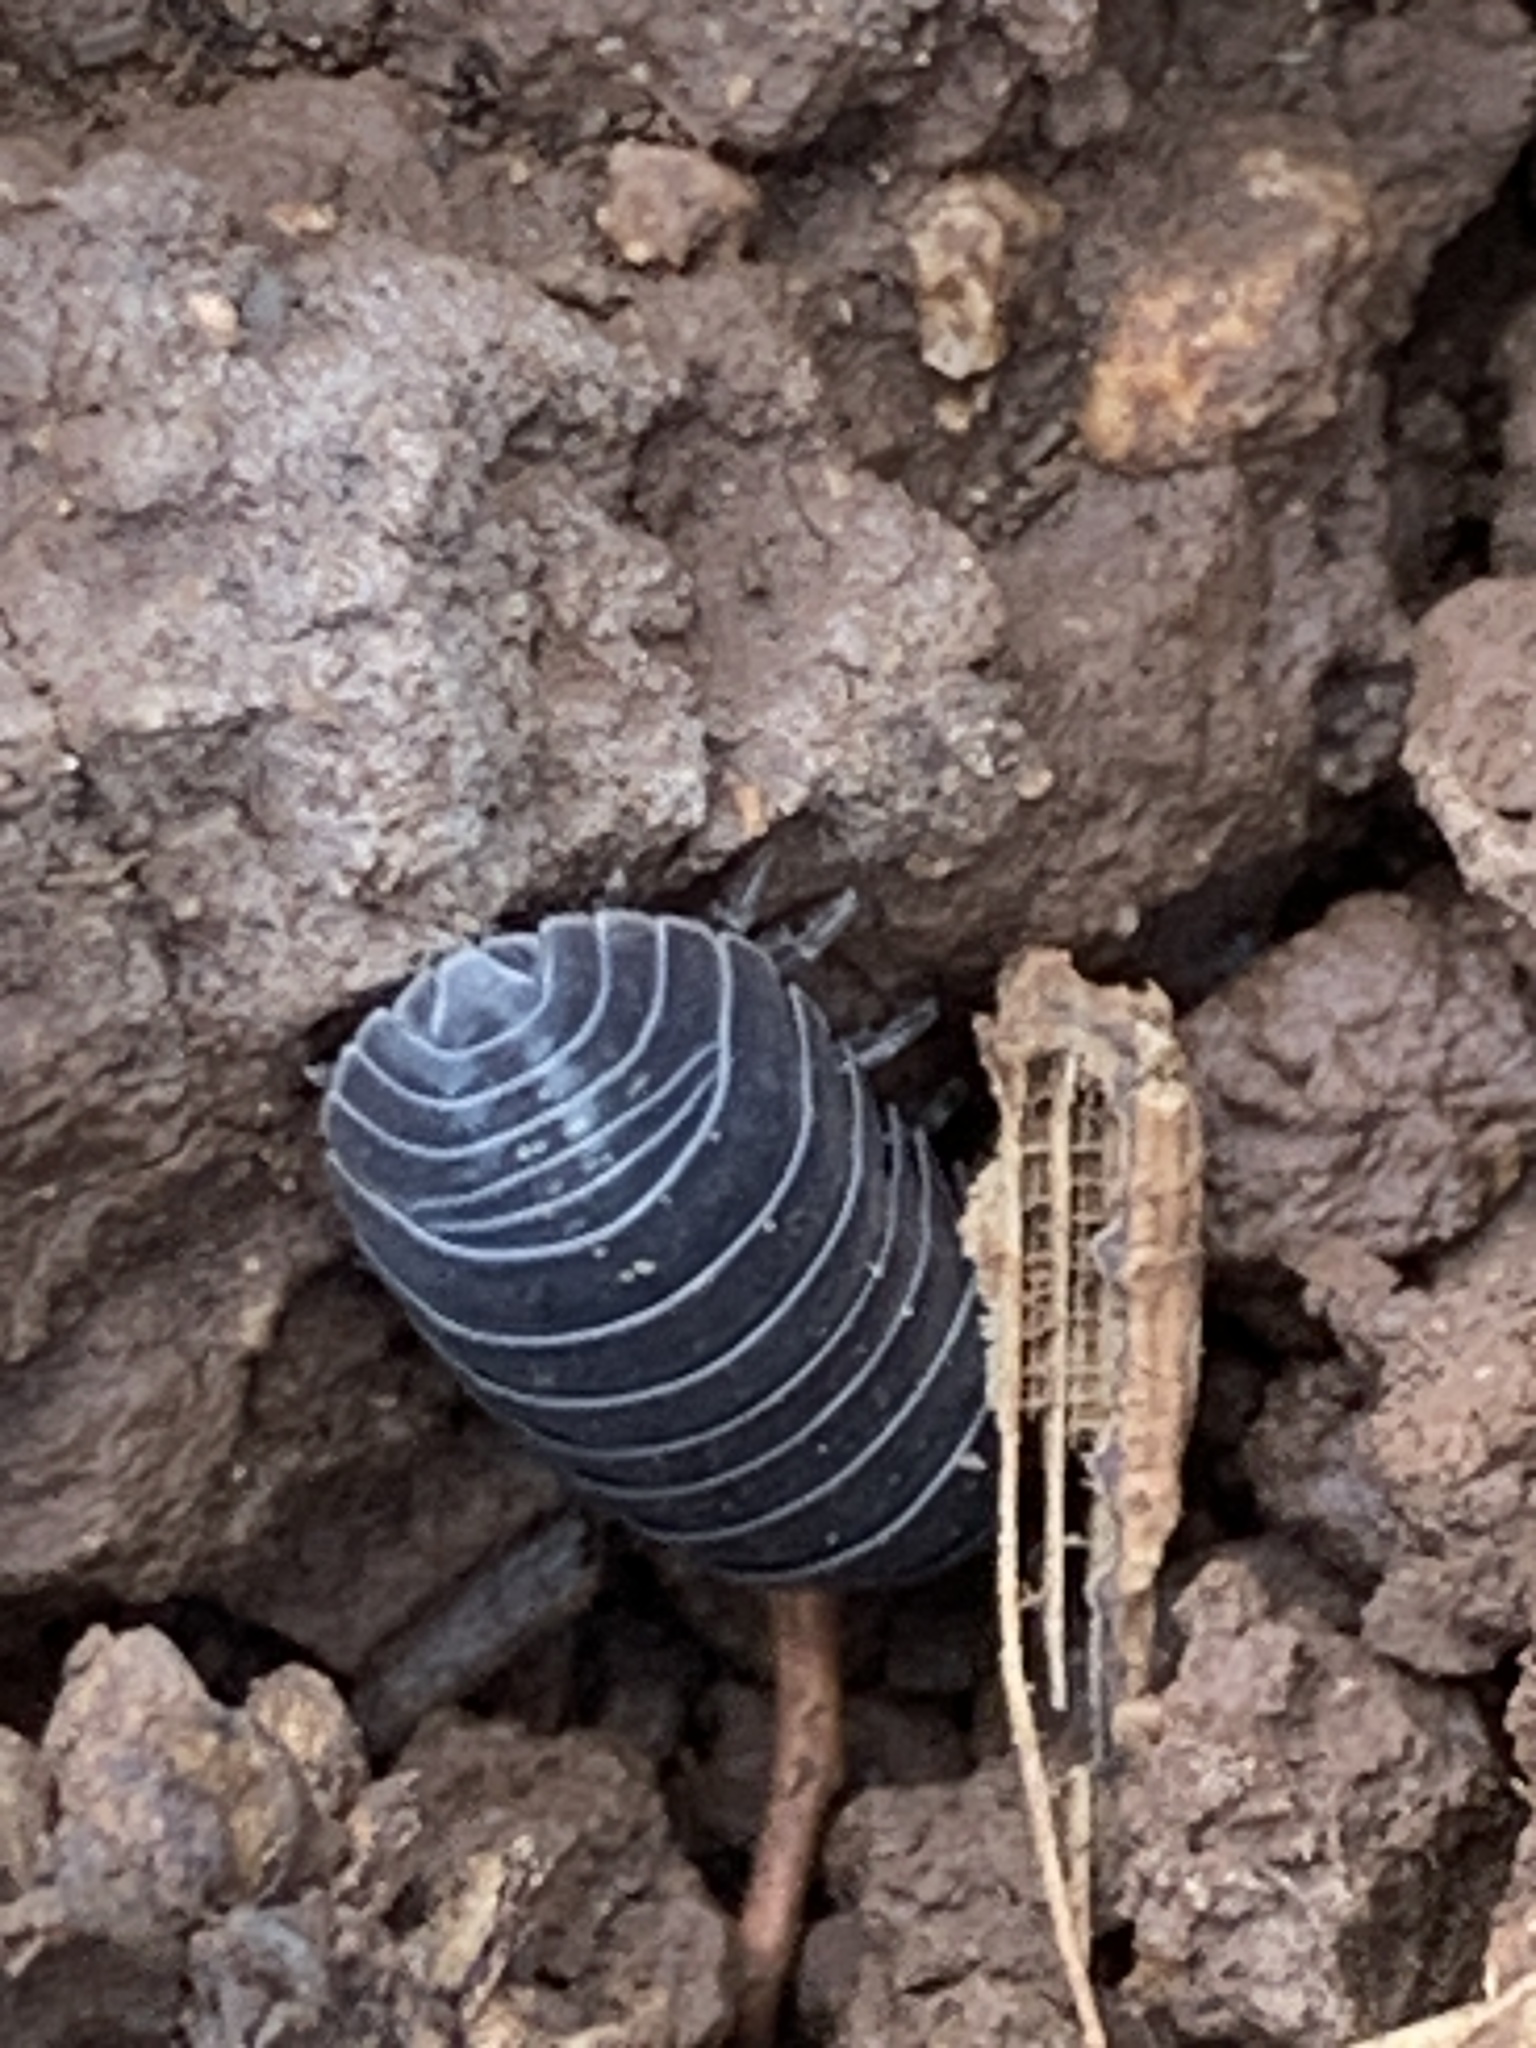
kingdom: Animalia
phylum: Arthropoda
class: Malacostraca
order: Isopoda
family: Armadillidiidae
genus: Armadillidium
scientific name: Armadillidium vulgare
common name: Common pill woodlouse
